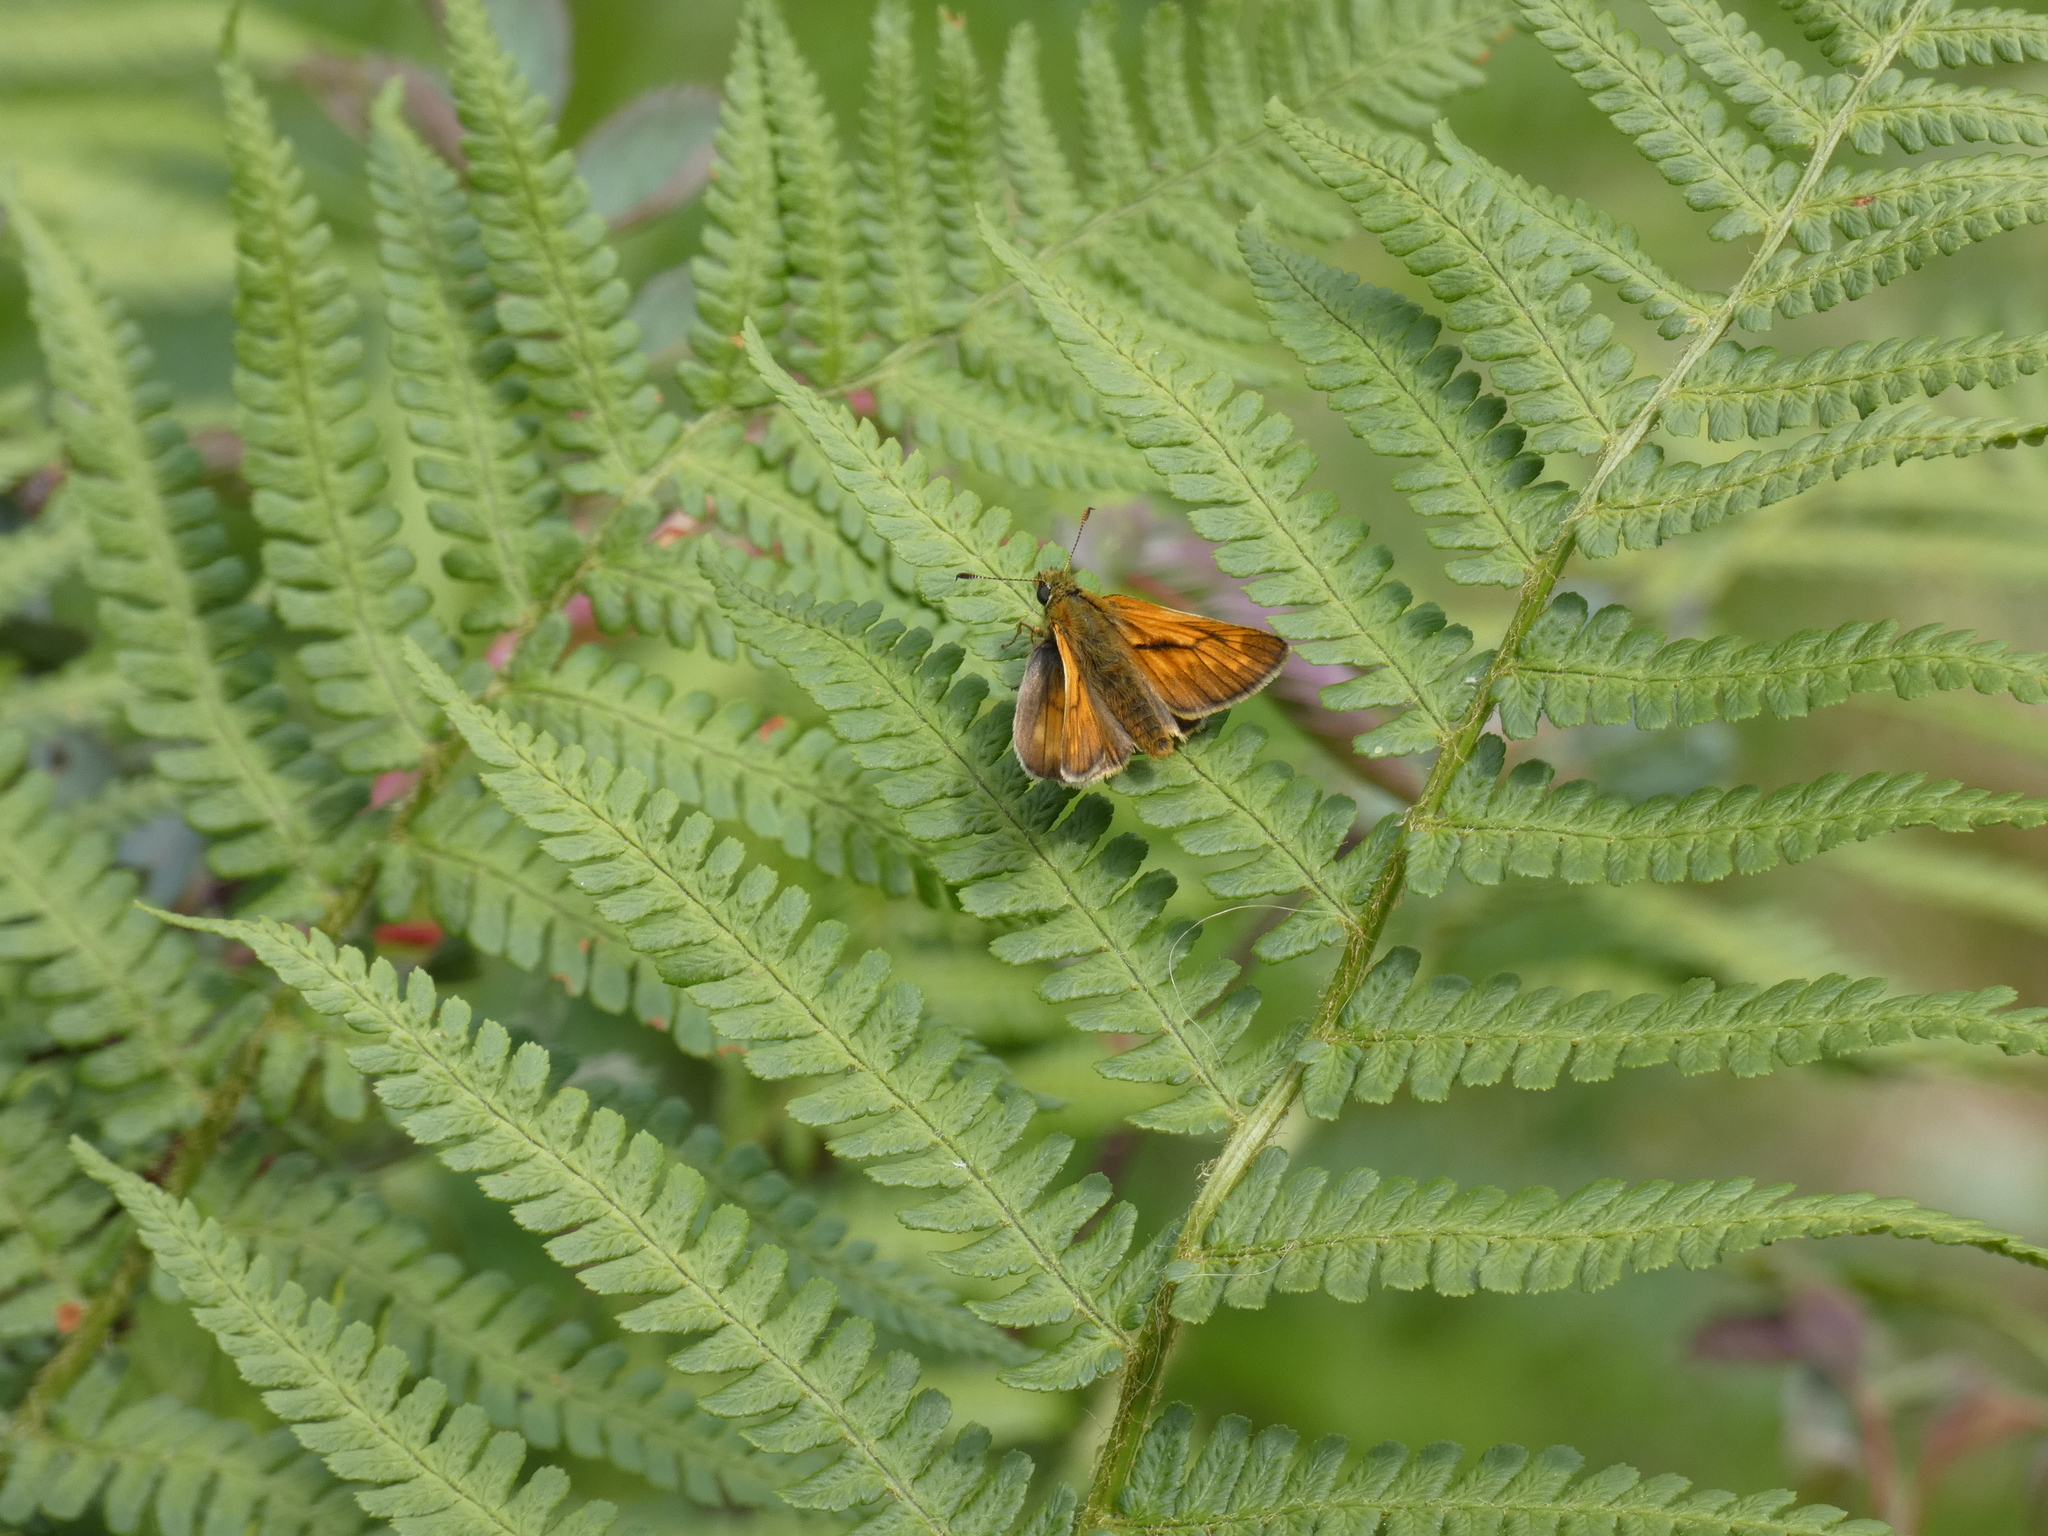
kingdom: Animalia
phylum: Arthropoda
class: Insecta
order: Lepidoptera
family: Hesperiidae
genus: Ochlodes
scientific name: Ochlodes venata
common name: Large skipper
